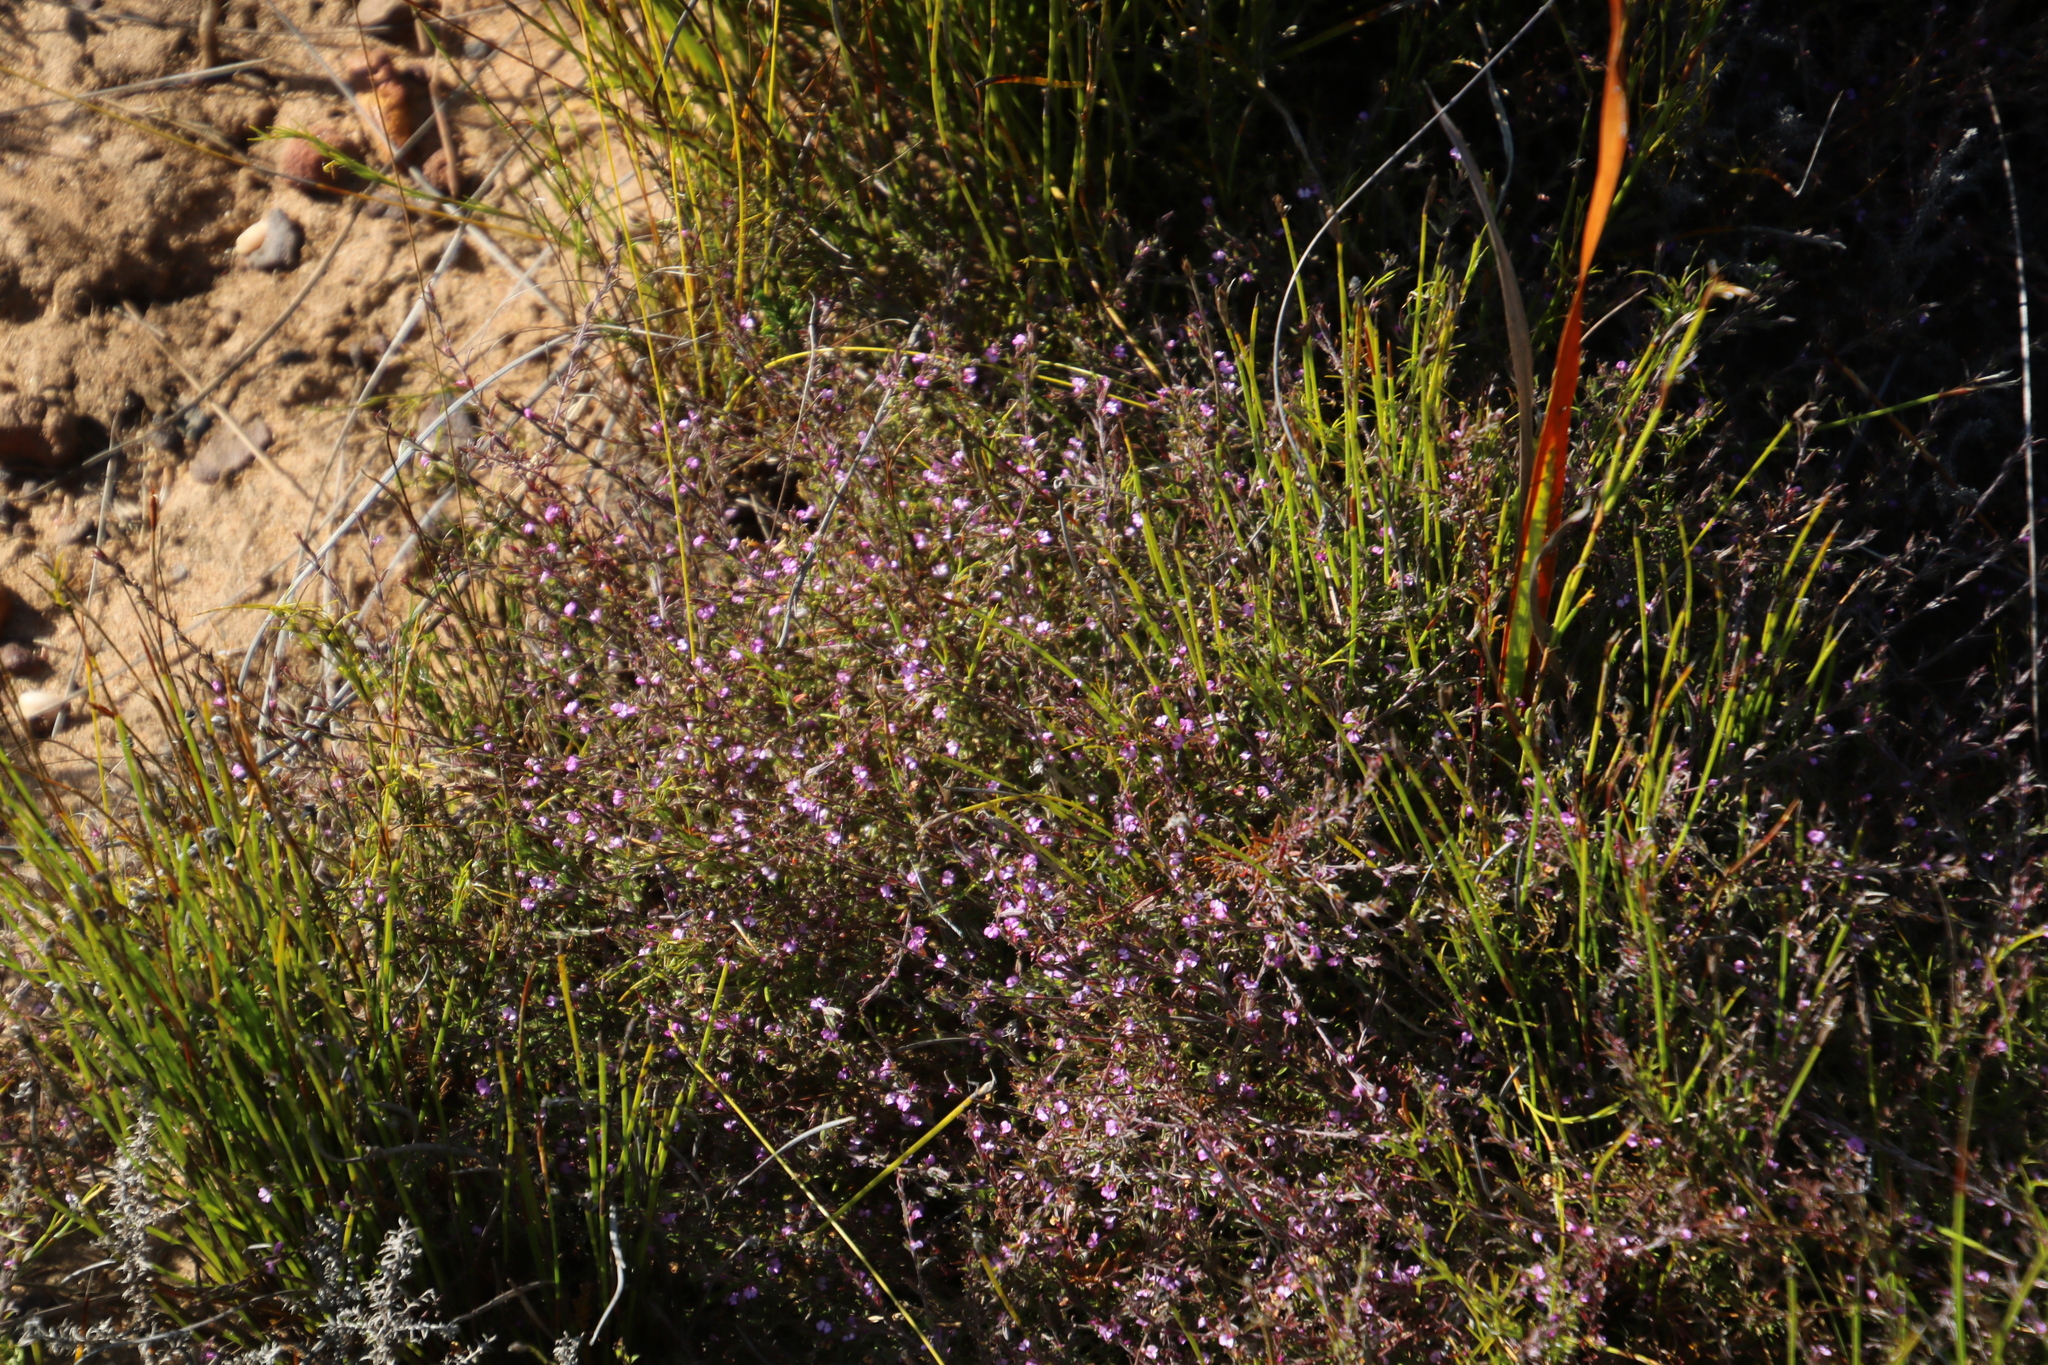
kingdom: Plantae
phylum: Tracheophyta
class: Magnoliopsida
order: Fabales
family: Polygalaceae
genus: Muraltia
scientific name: Muraltia stipulacea
